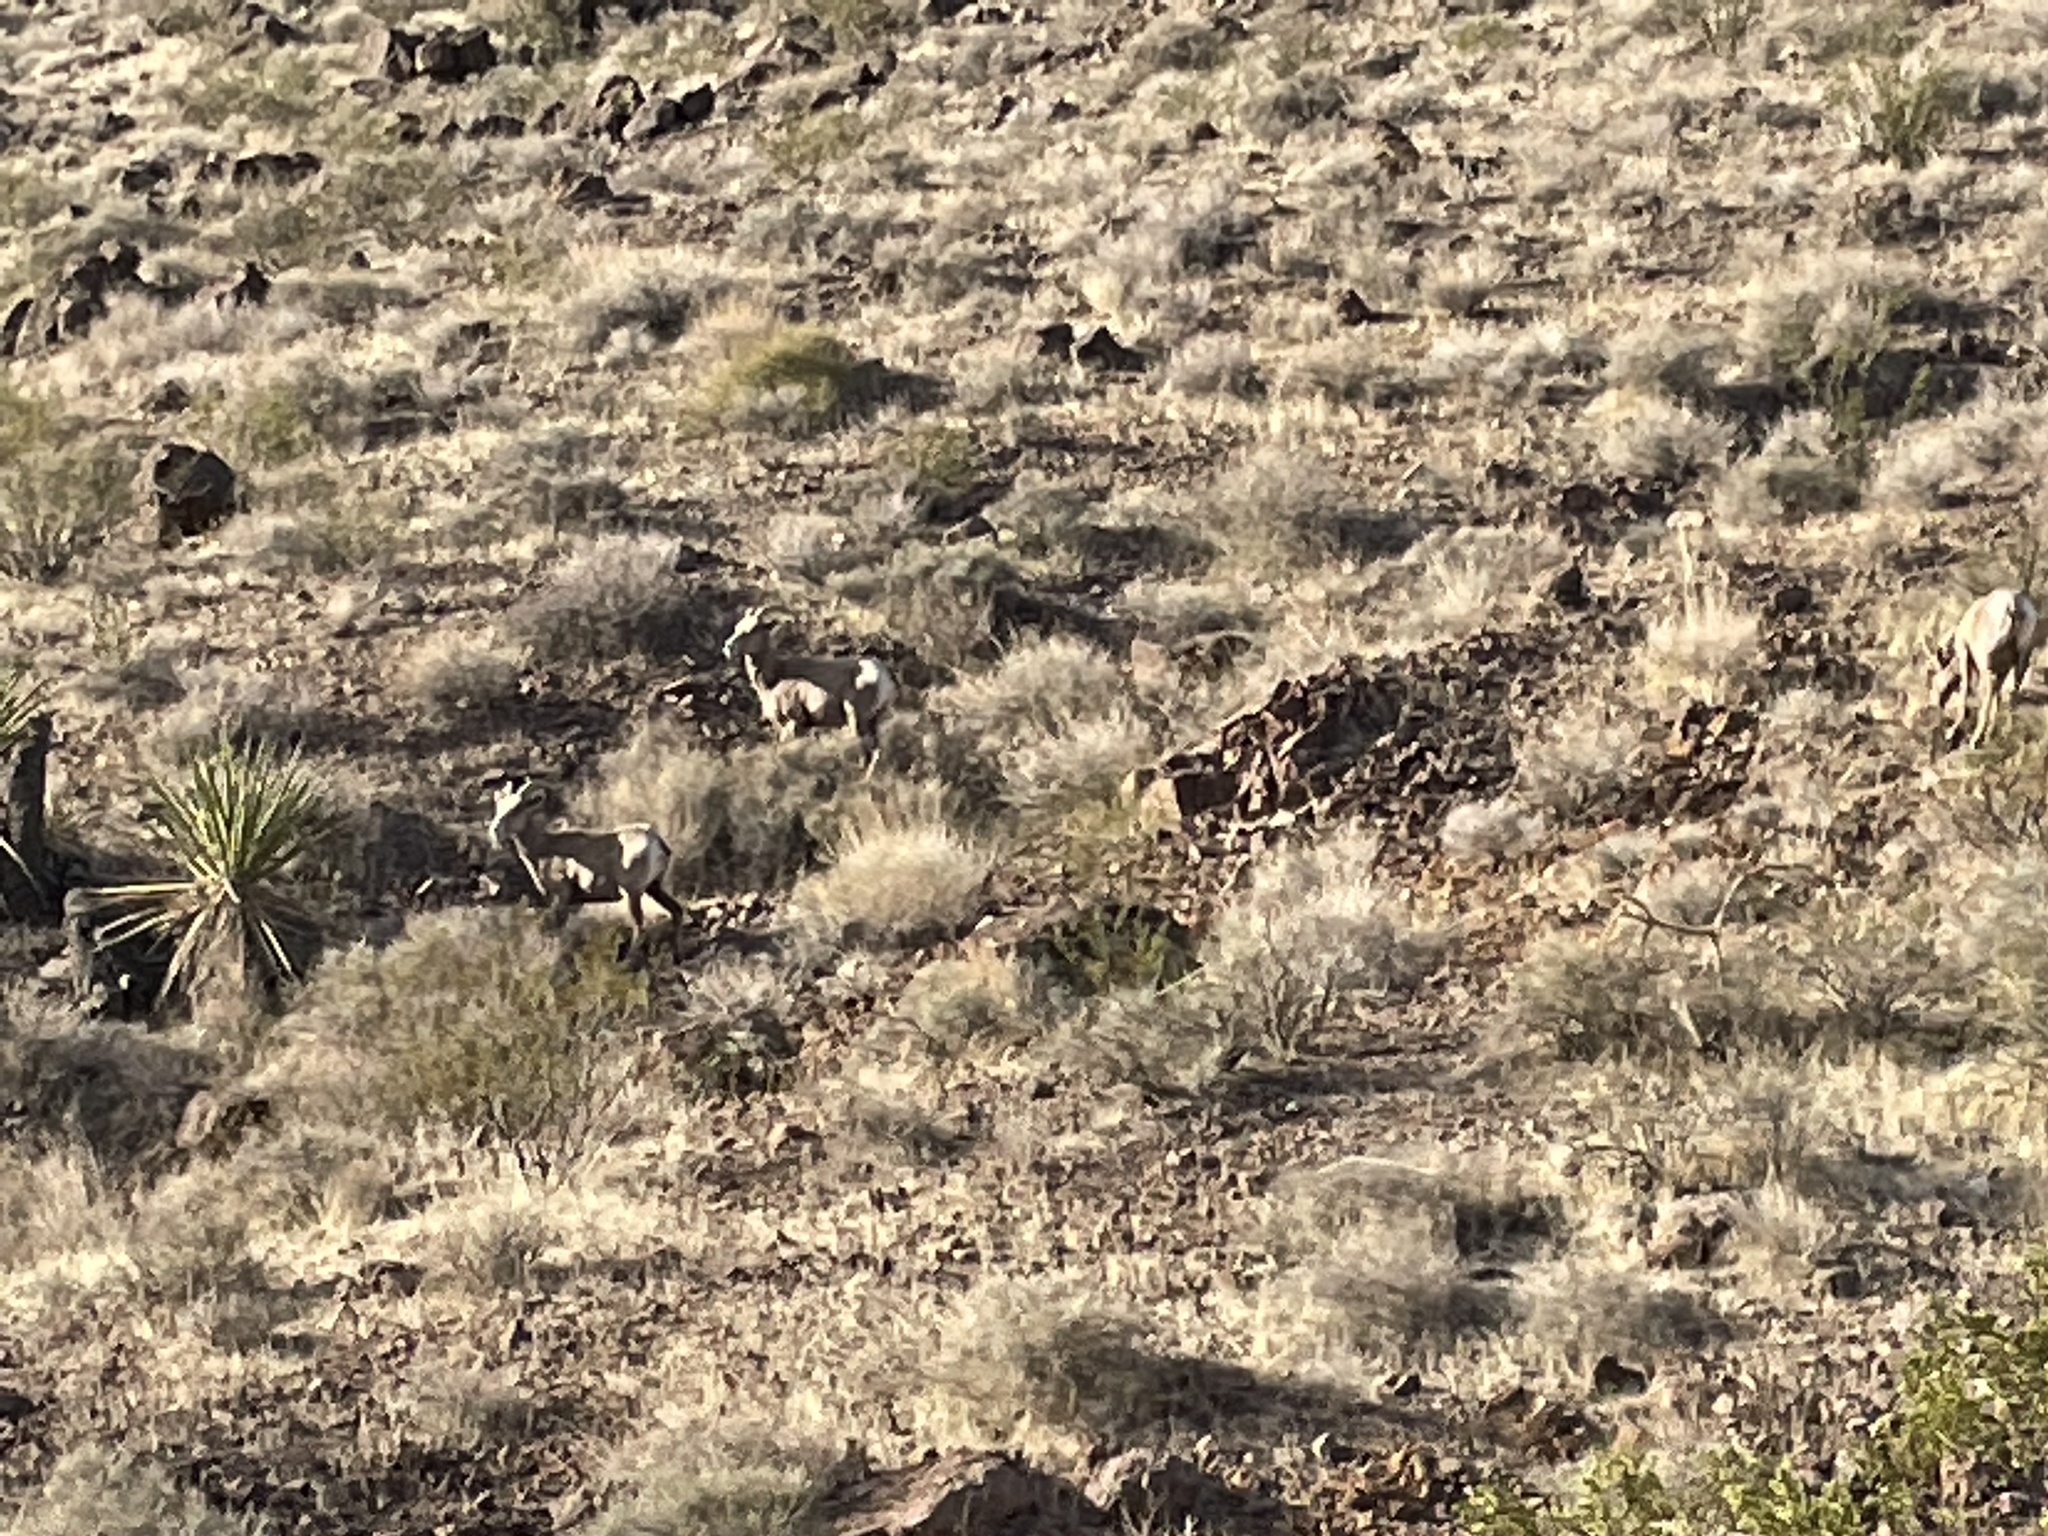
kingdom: Animalia
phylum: Chordata
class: Mammalia
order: Artiodactyla
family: Bovidae
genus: Ovis
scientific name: Ovis canadensis
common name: Bighorn sheep
